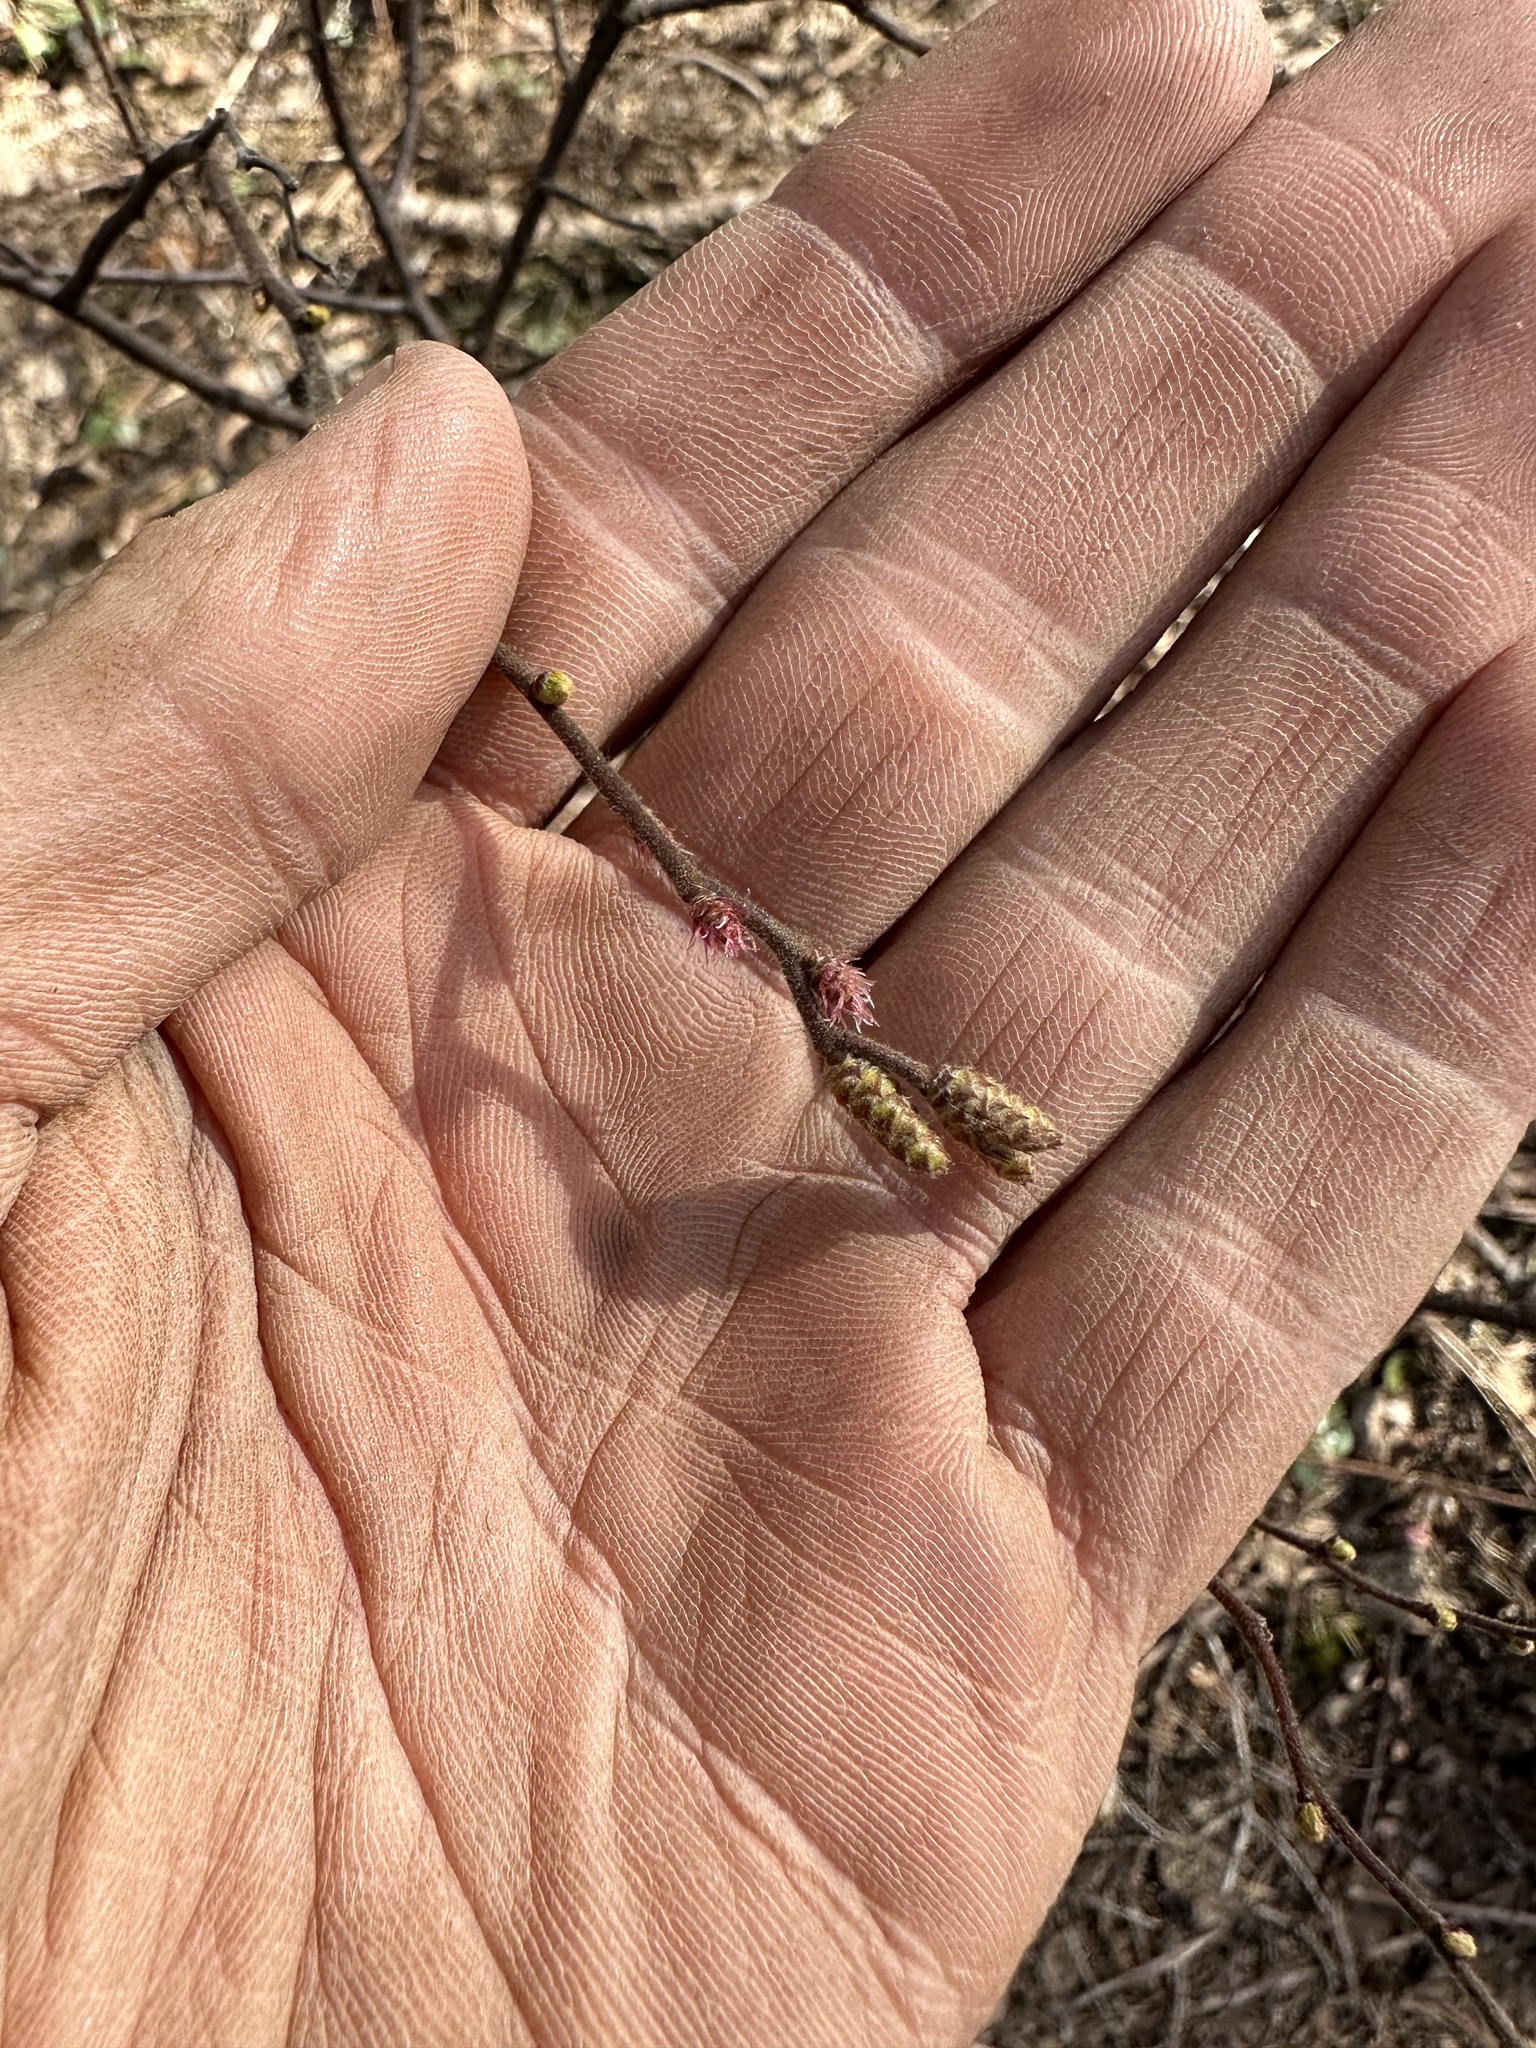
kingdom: Plantae
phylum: Tracheophyta
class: Magnoliopsida
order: Fagales
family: Myricaceae
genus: Comptonia
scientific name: Comptonia peregrina
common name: Sweet-fern
